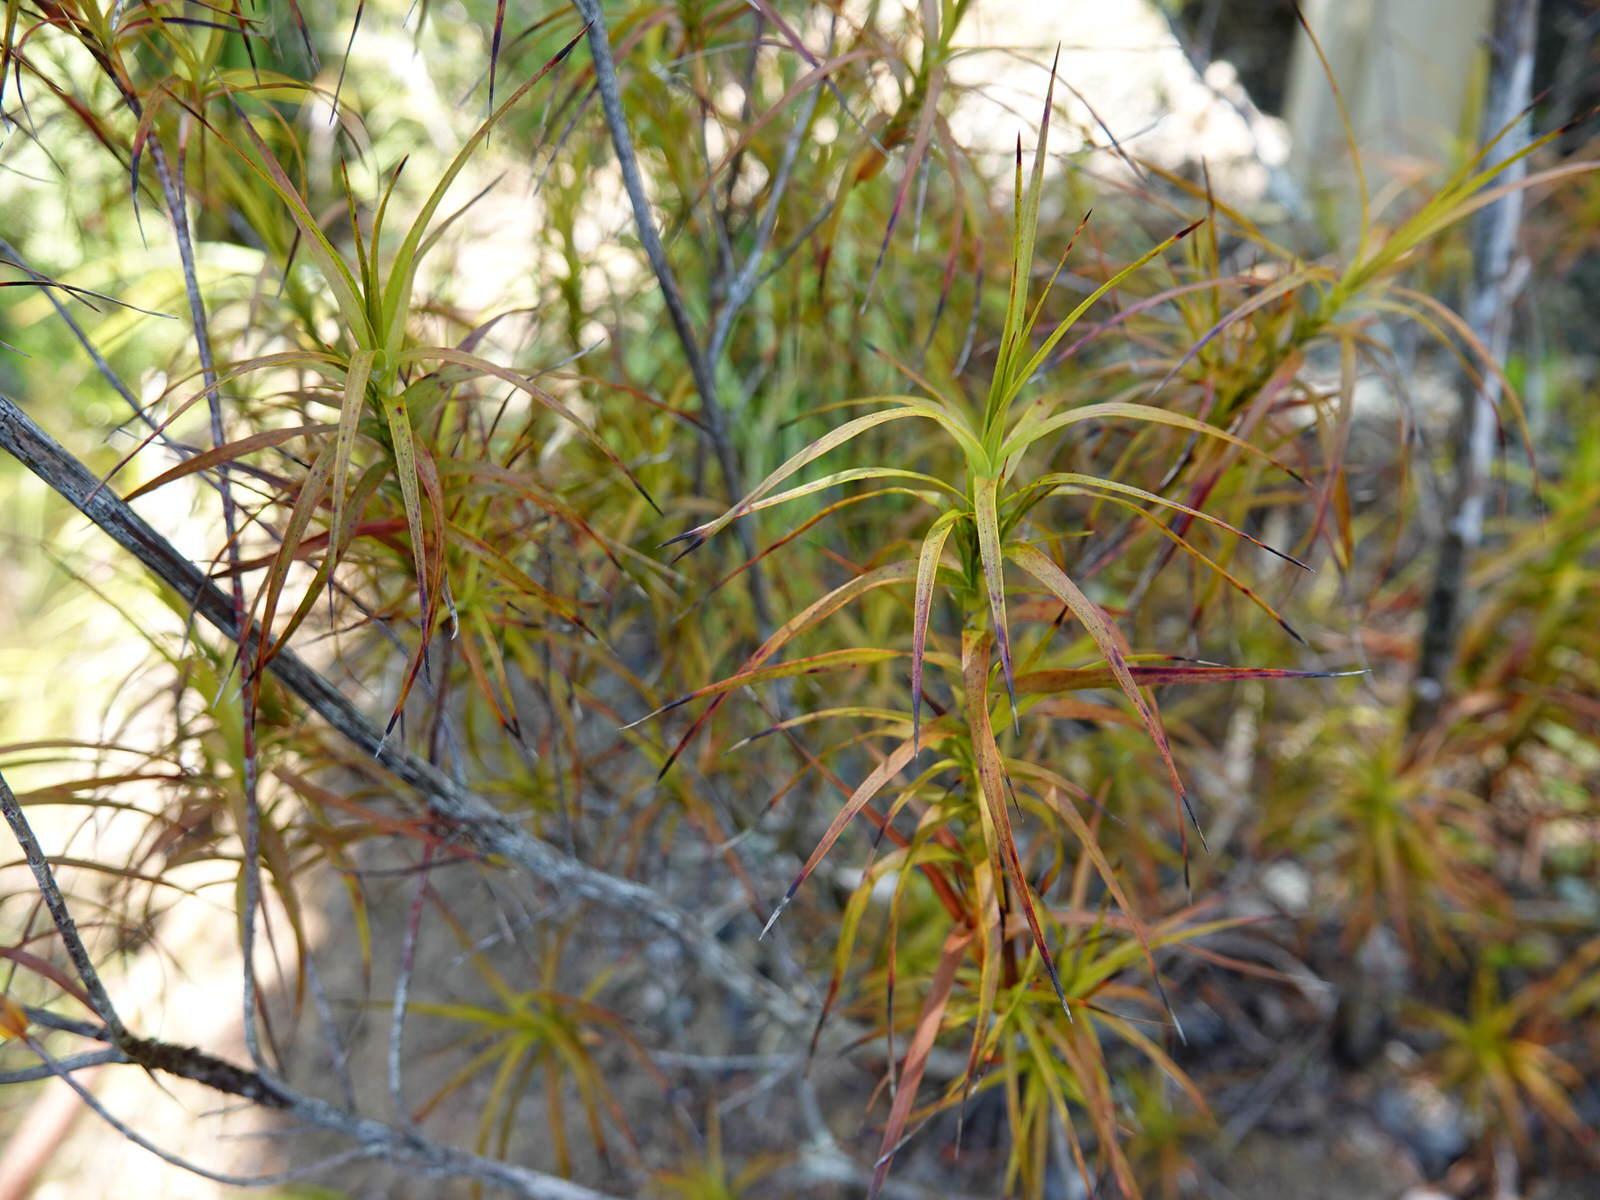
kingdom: Plantae
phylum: Tracheophyta
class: Magnoliopsida
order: Ericales
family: Ericaceae
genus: Dracophyllum
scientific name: Dracophyllum sinclairii
